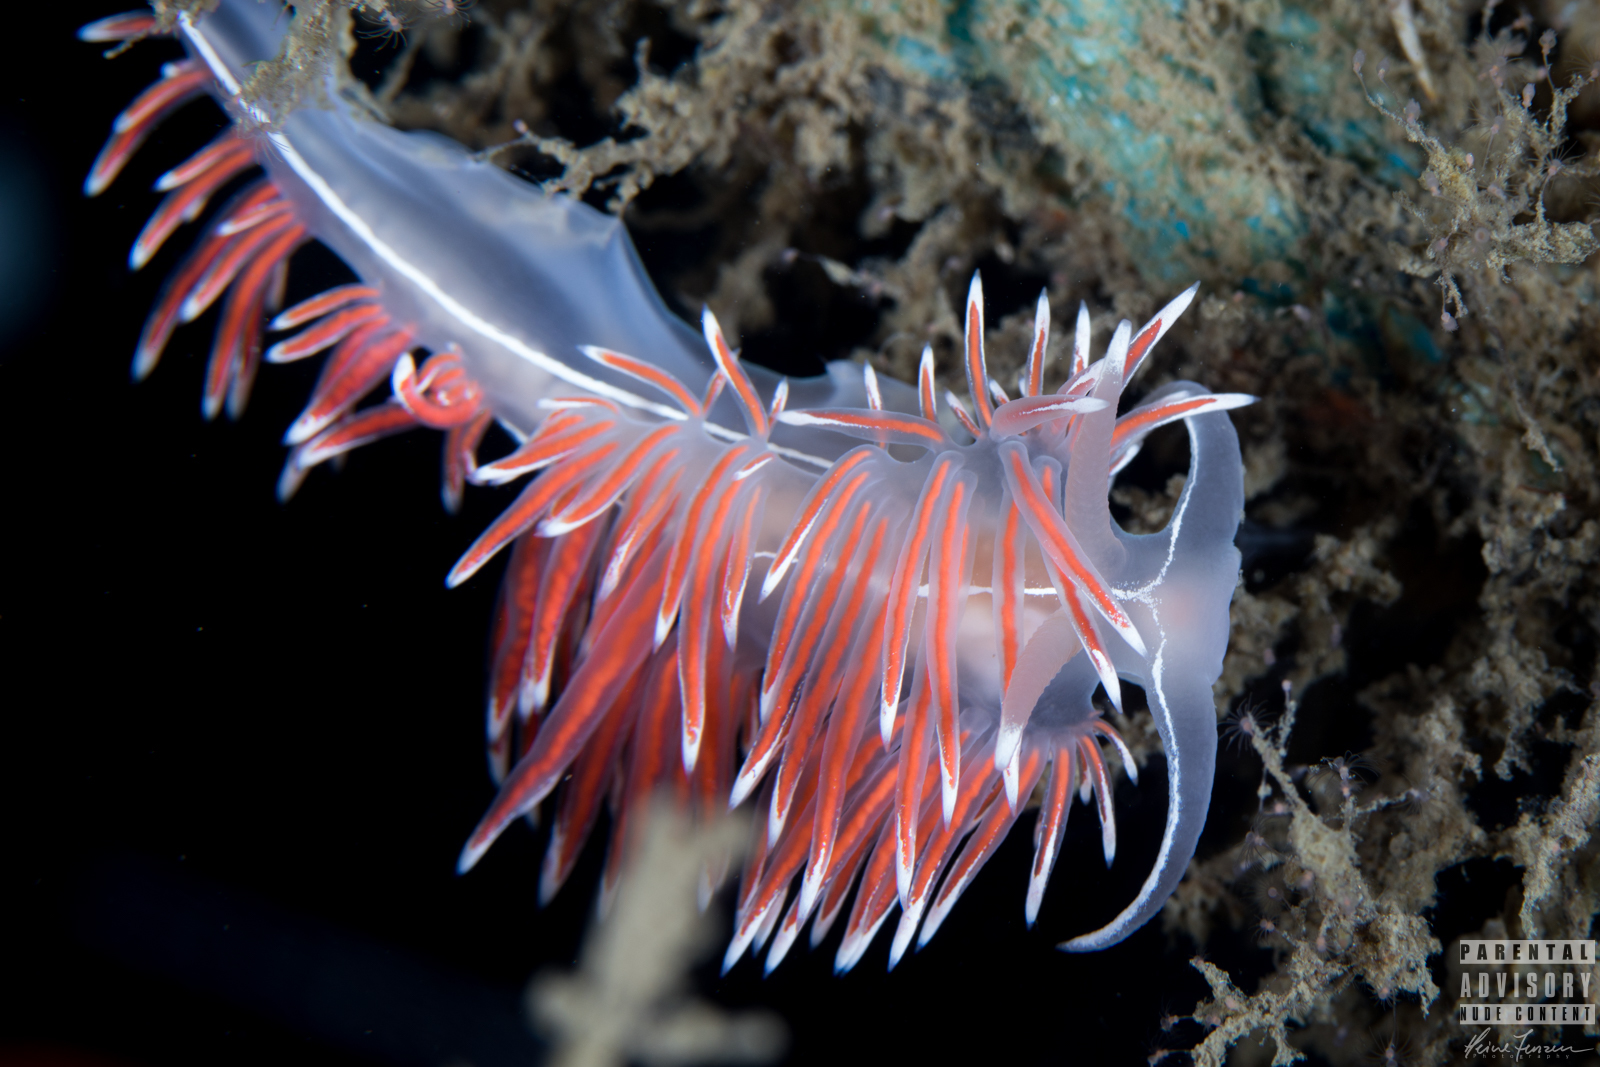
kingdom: Animalia
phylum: Mollusca
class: Gastropoda
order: Nudibranchia
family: Coryphellidae
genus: Coryphella
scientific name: Coryphella lineata
